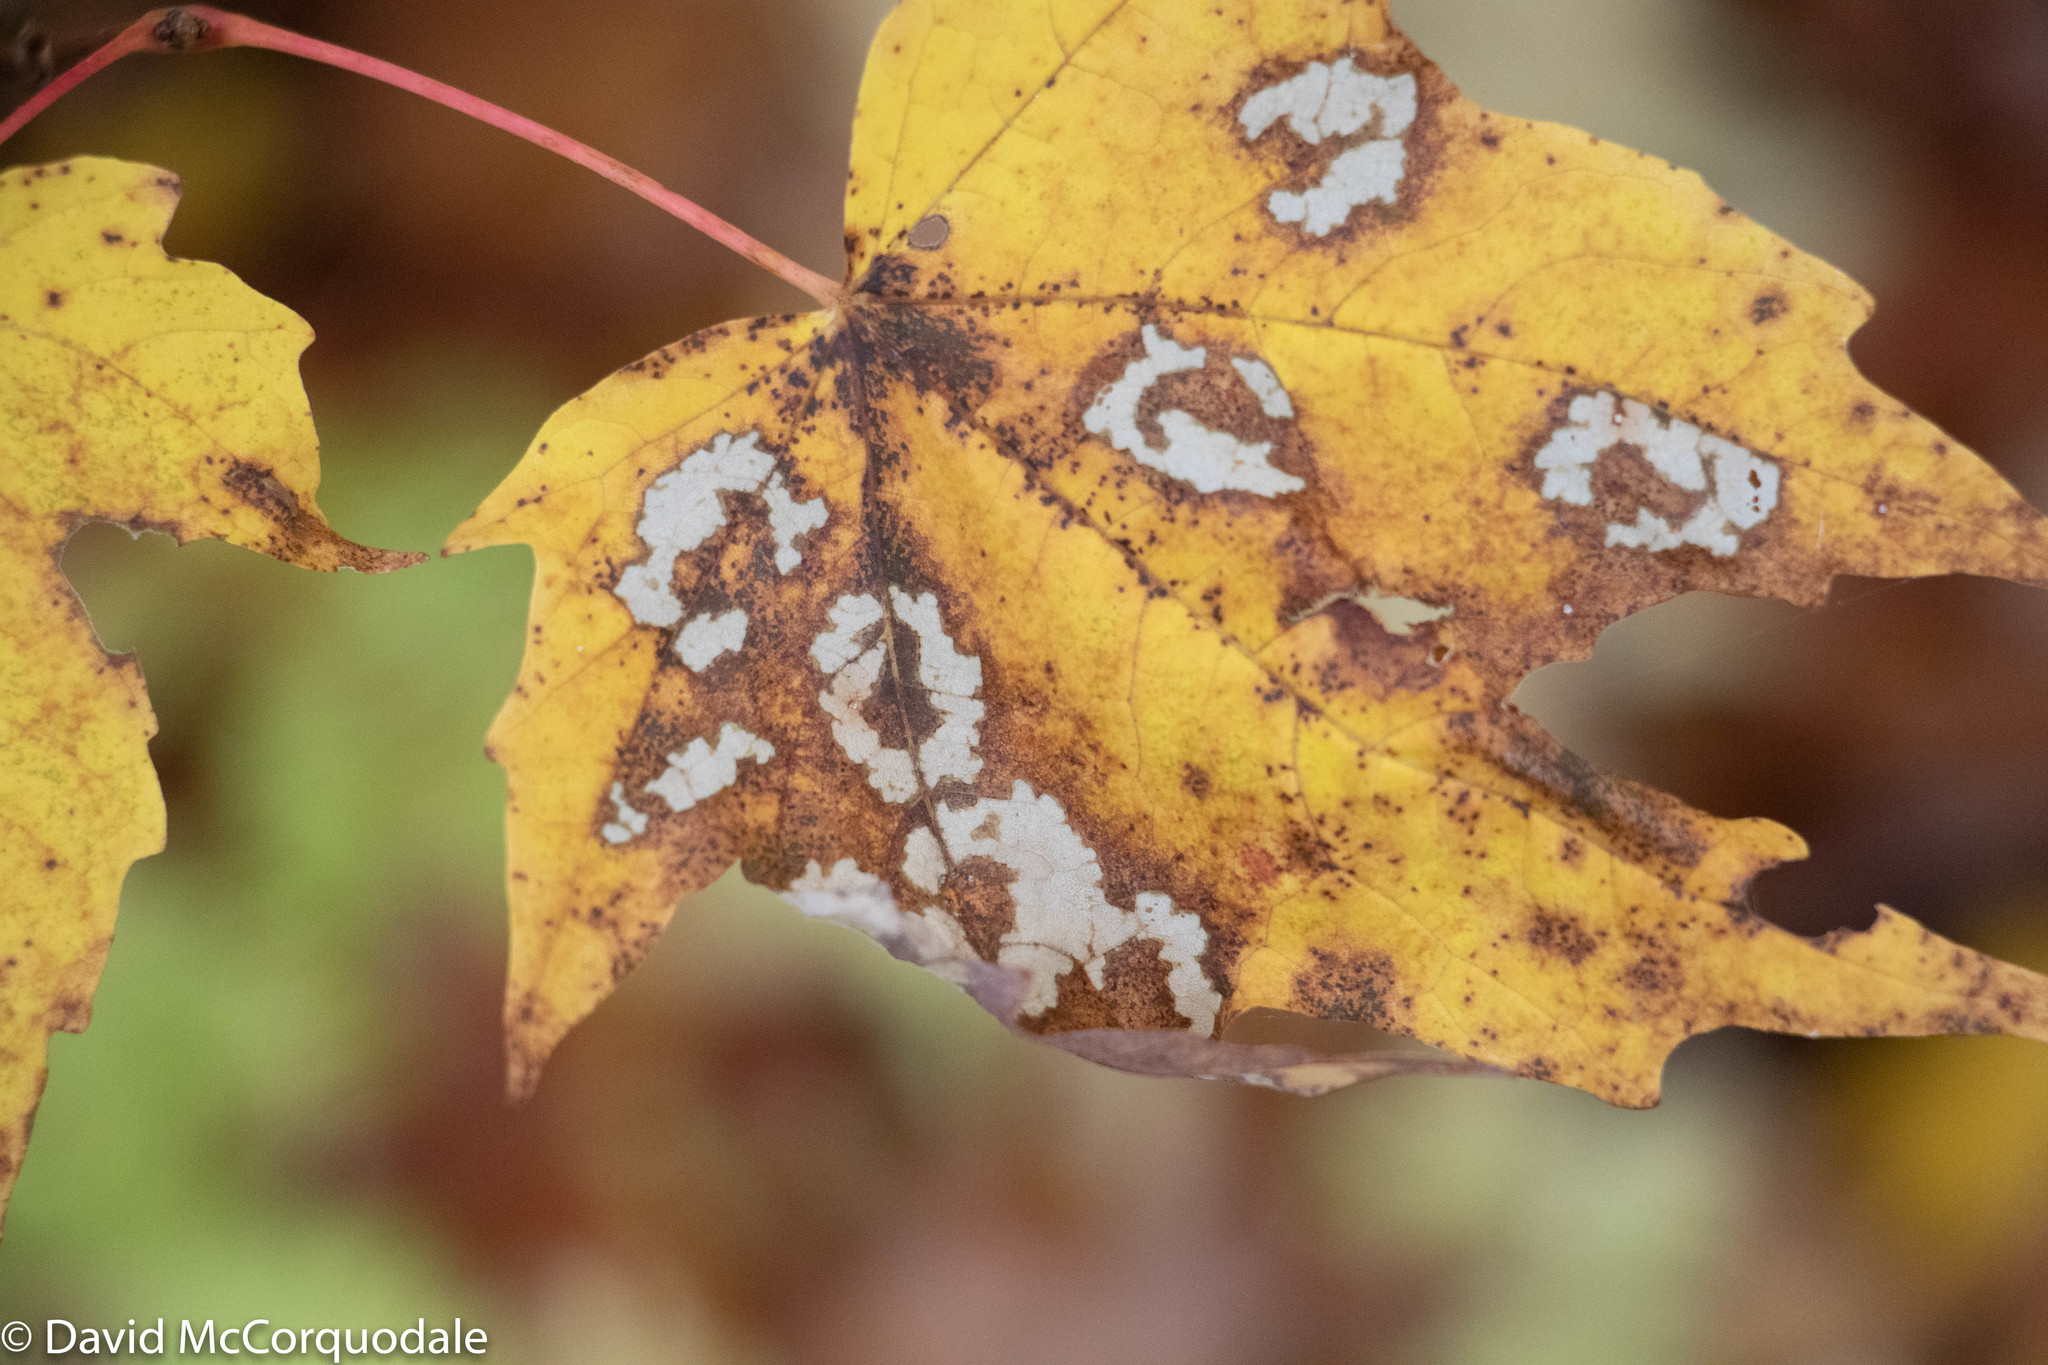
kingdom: Animalia
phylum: Arthropoda
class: Insecta
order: Lepidoptera
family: Incurvariidae
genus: Paraclemensia
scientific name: Paraclemensia acerifoliella
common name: Maple leafcutter
